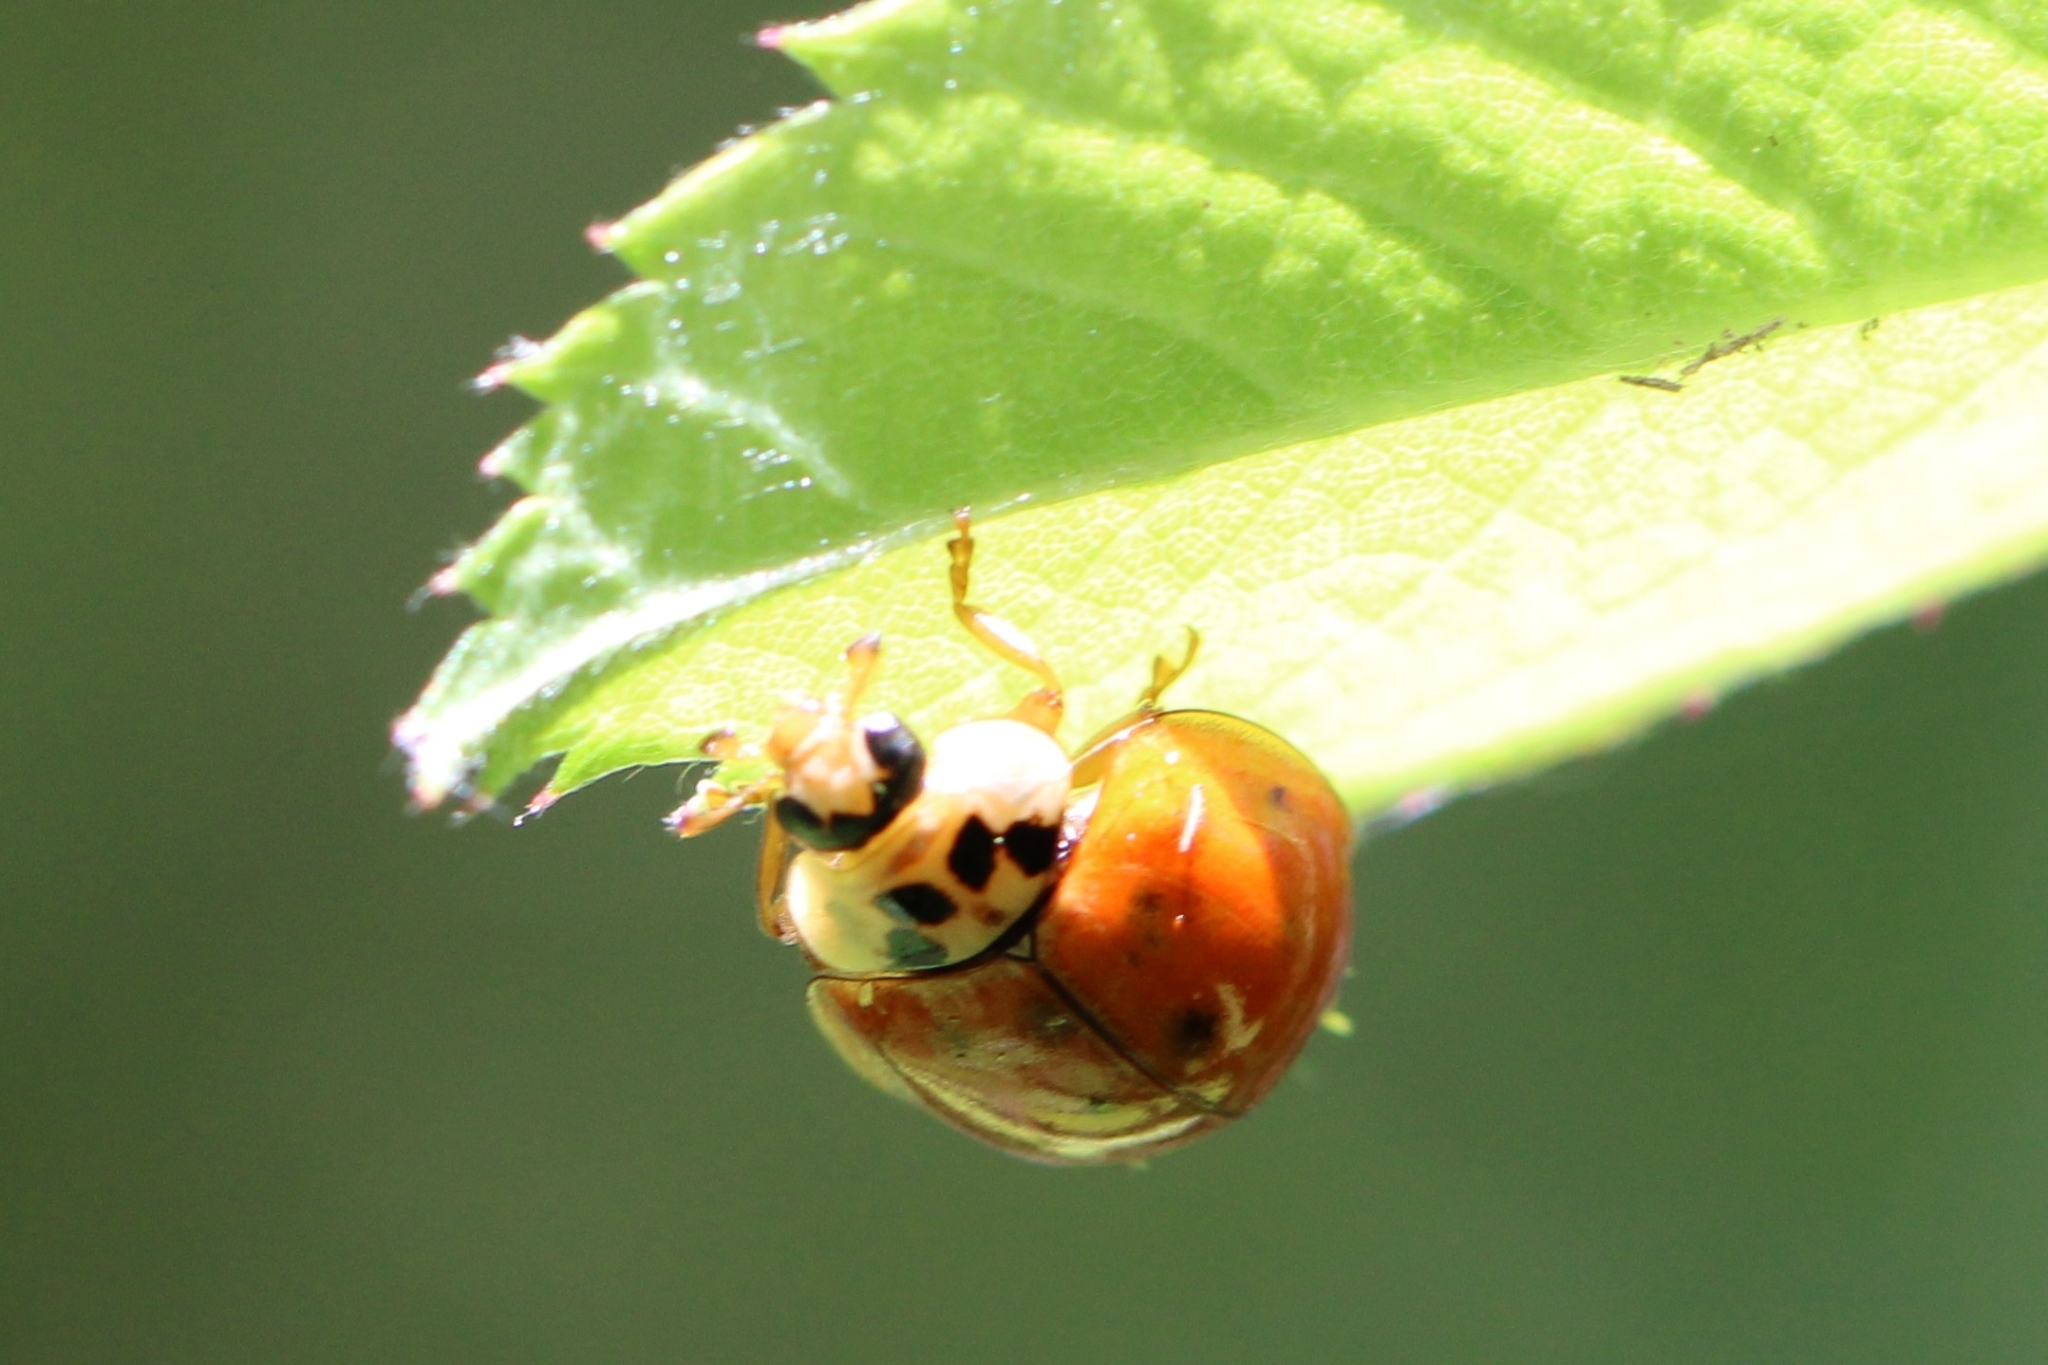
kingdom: Animalia
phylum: Arthropoda
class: Insecta
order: Coleoptera
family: Coccinellidae
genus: Harmonia
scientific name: Harmonia axyridis
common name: Harlequin ladybird
